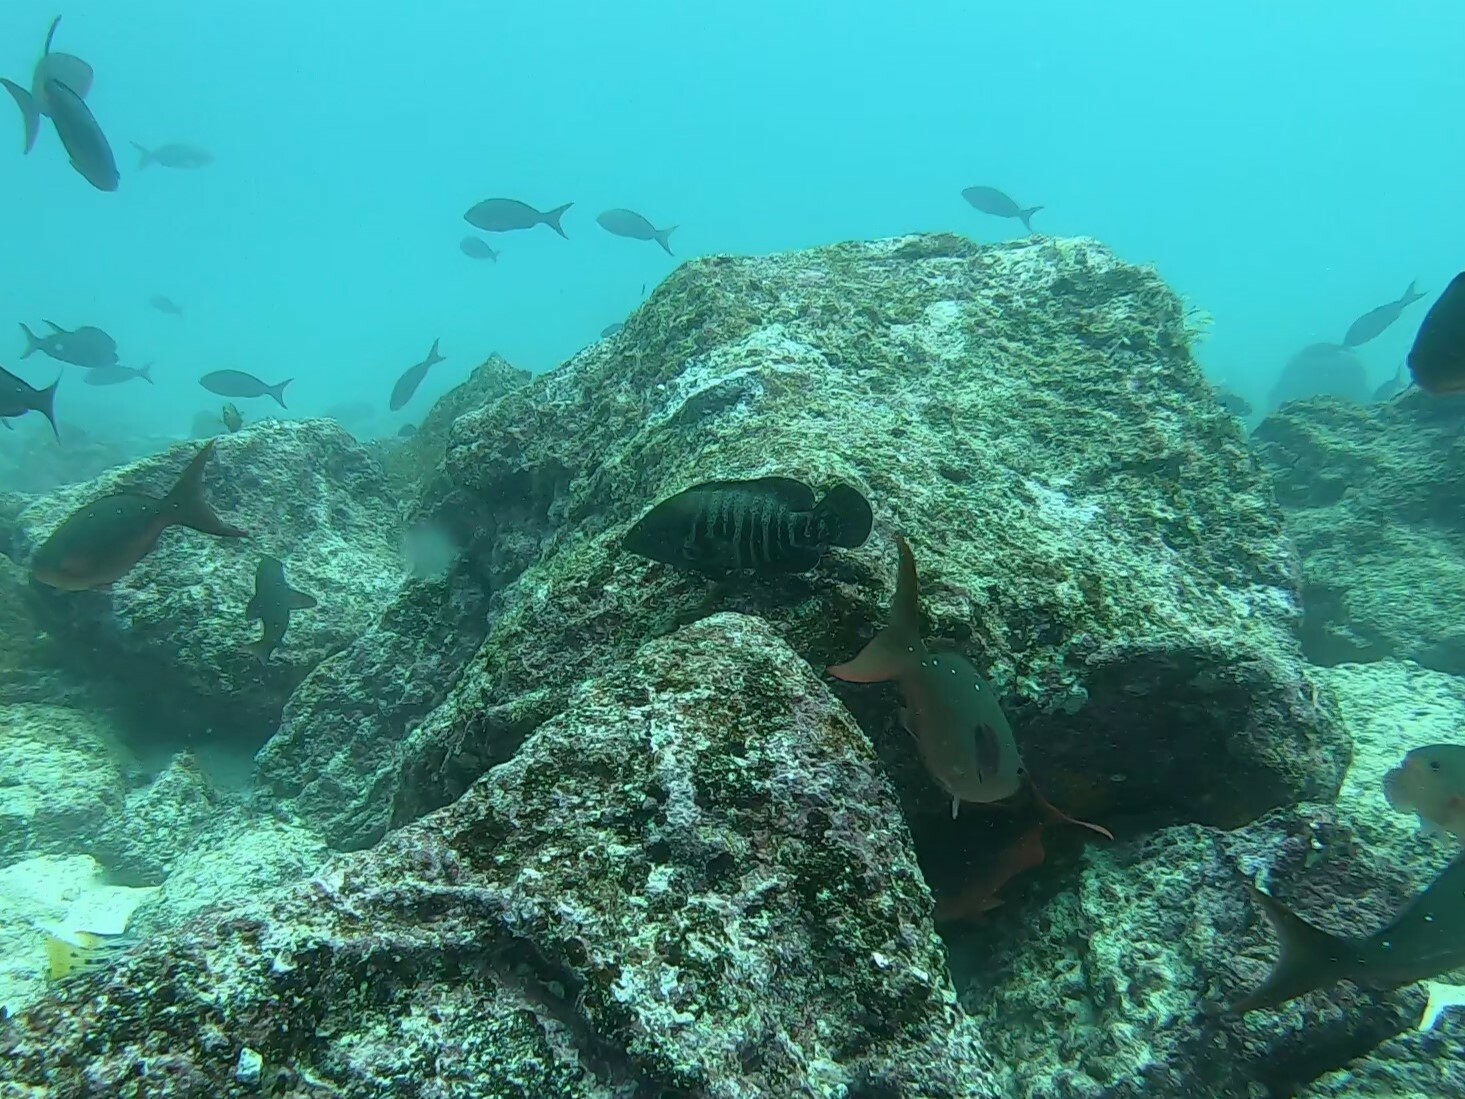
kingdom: Animalia
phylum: Chordata
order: Perciformes
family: Serranidae
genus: Cephalopholis
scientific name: Cephalopholis panamensis
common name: Pacific graysby
